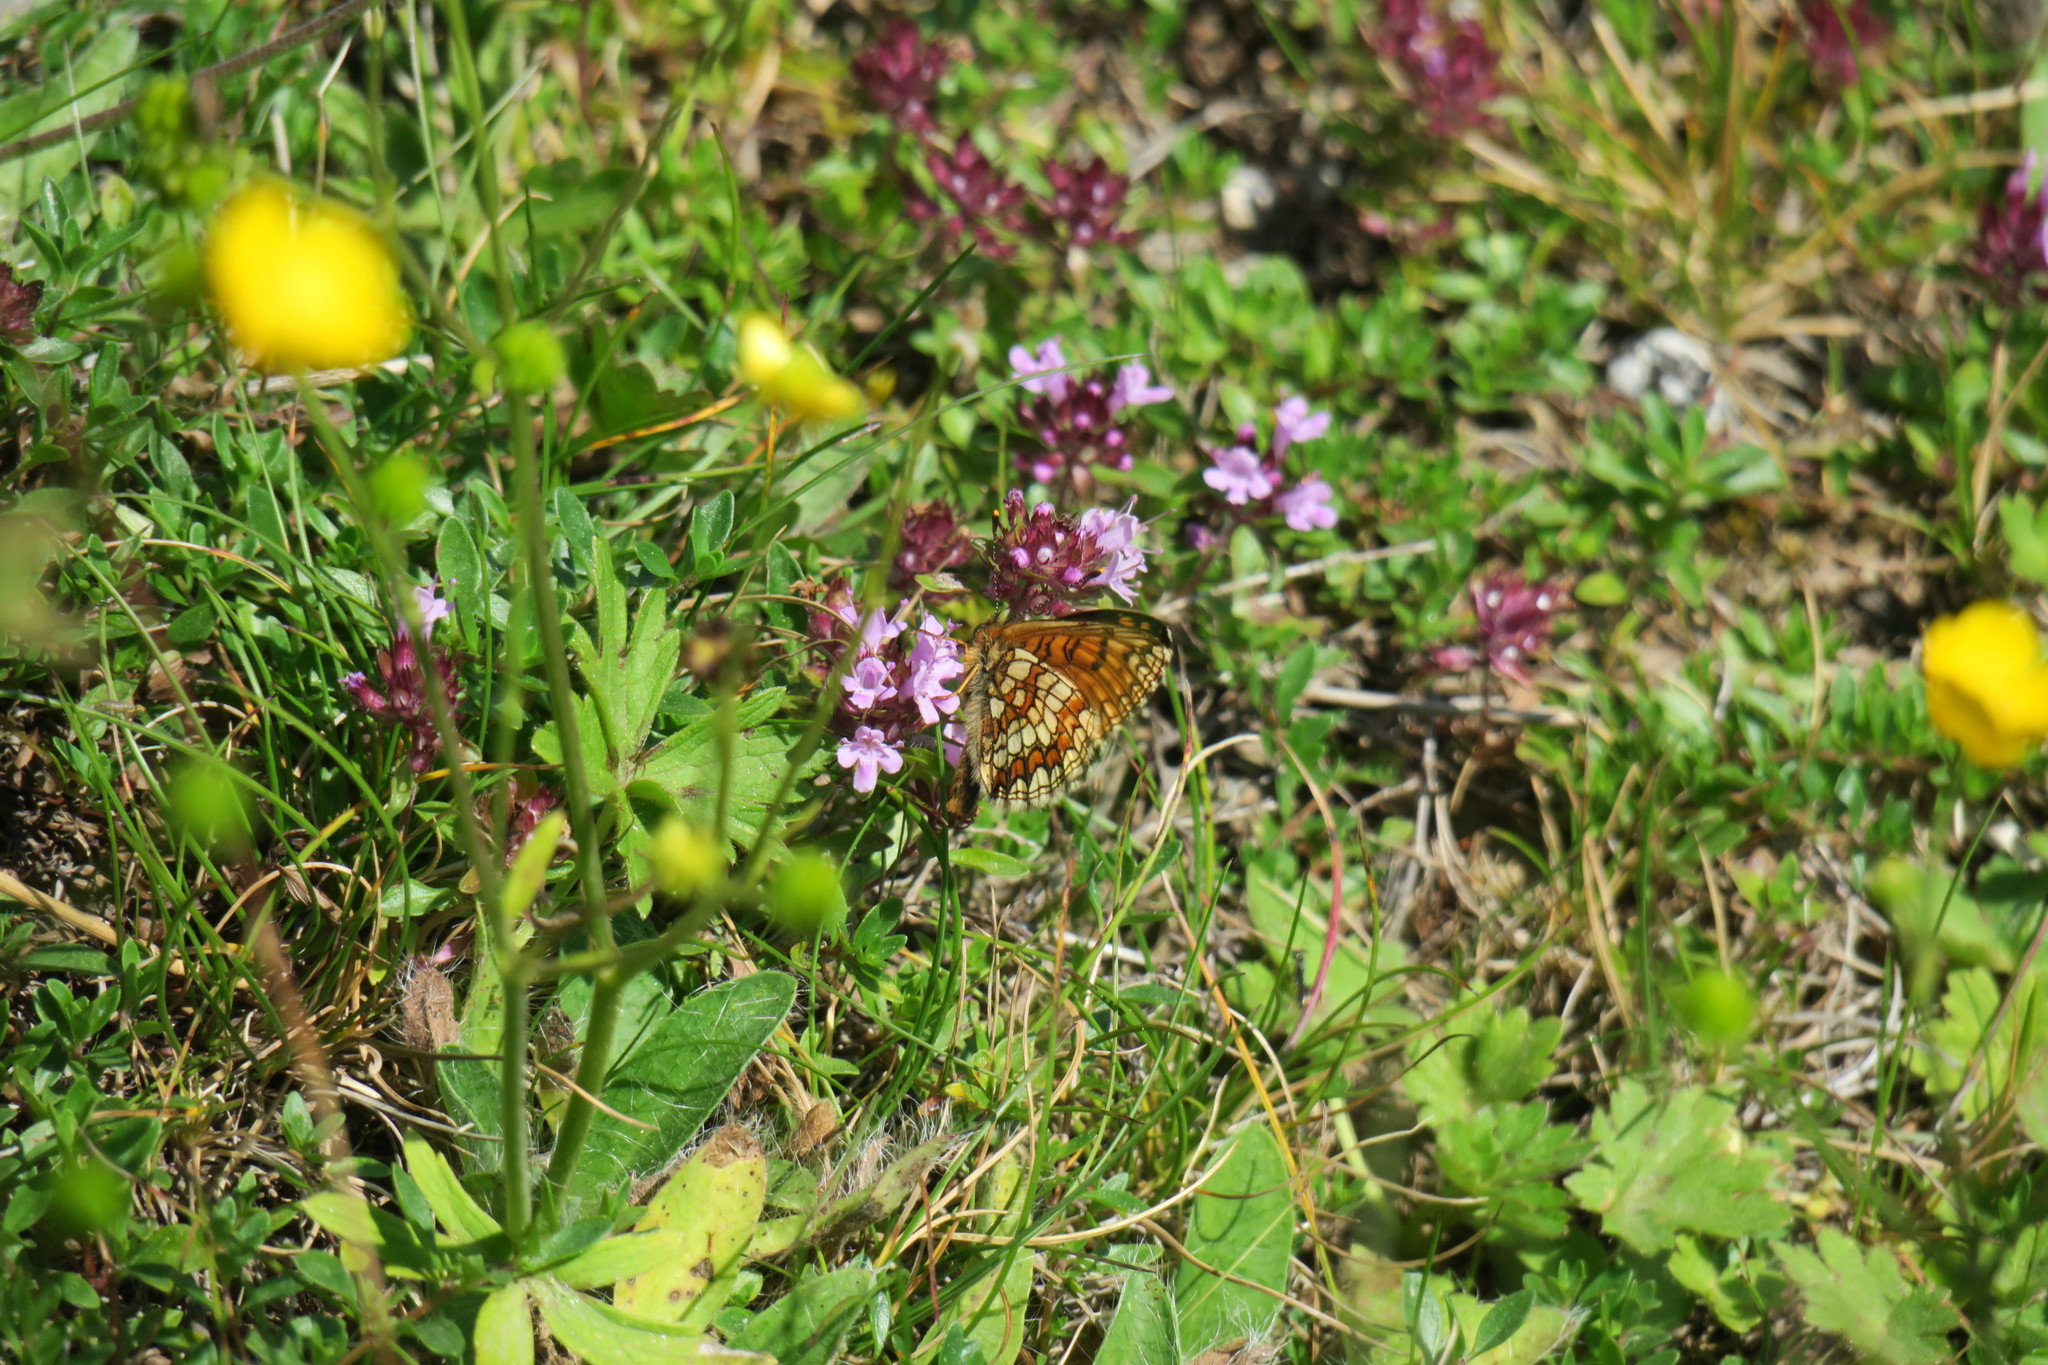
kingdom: Animalia
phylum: Arthropoda
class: Insecta
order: Lepidoptera
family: Nymphalidae
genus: Melitaea
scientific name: Melitaea athalia
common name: Heath fritillary
